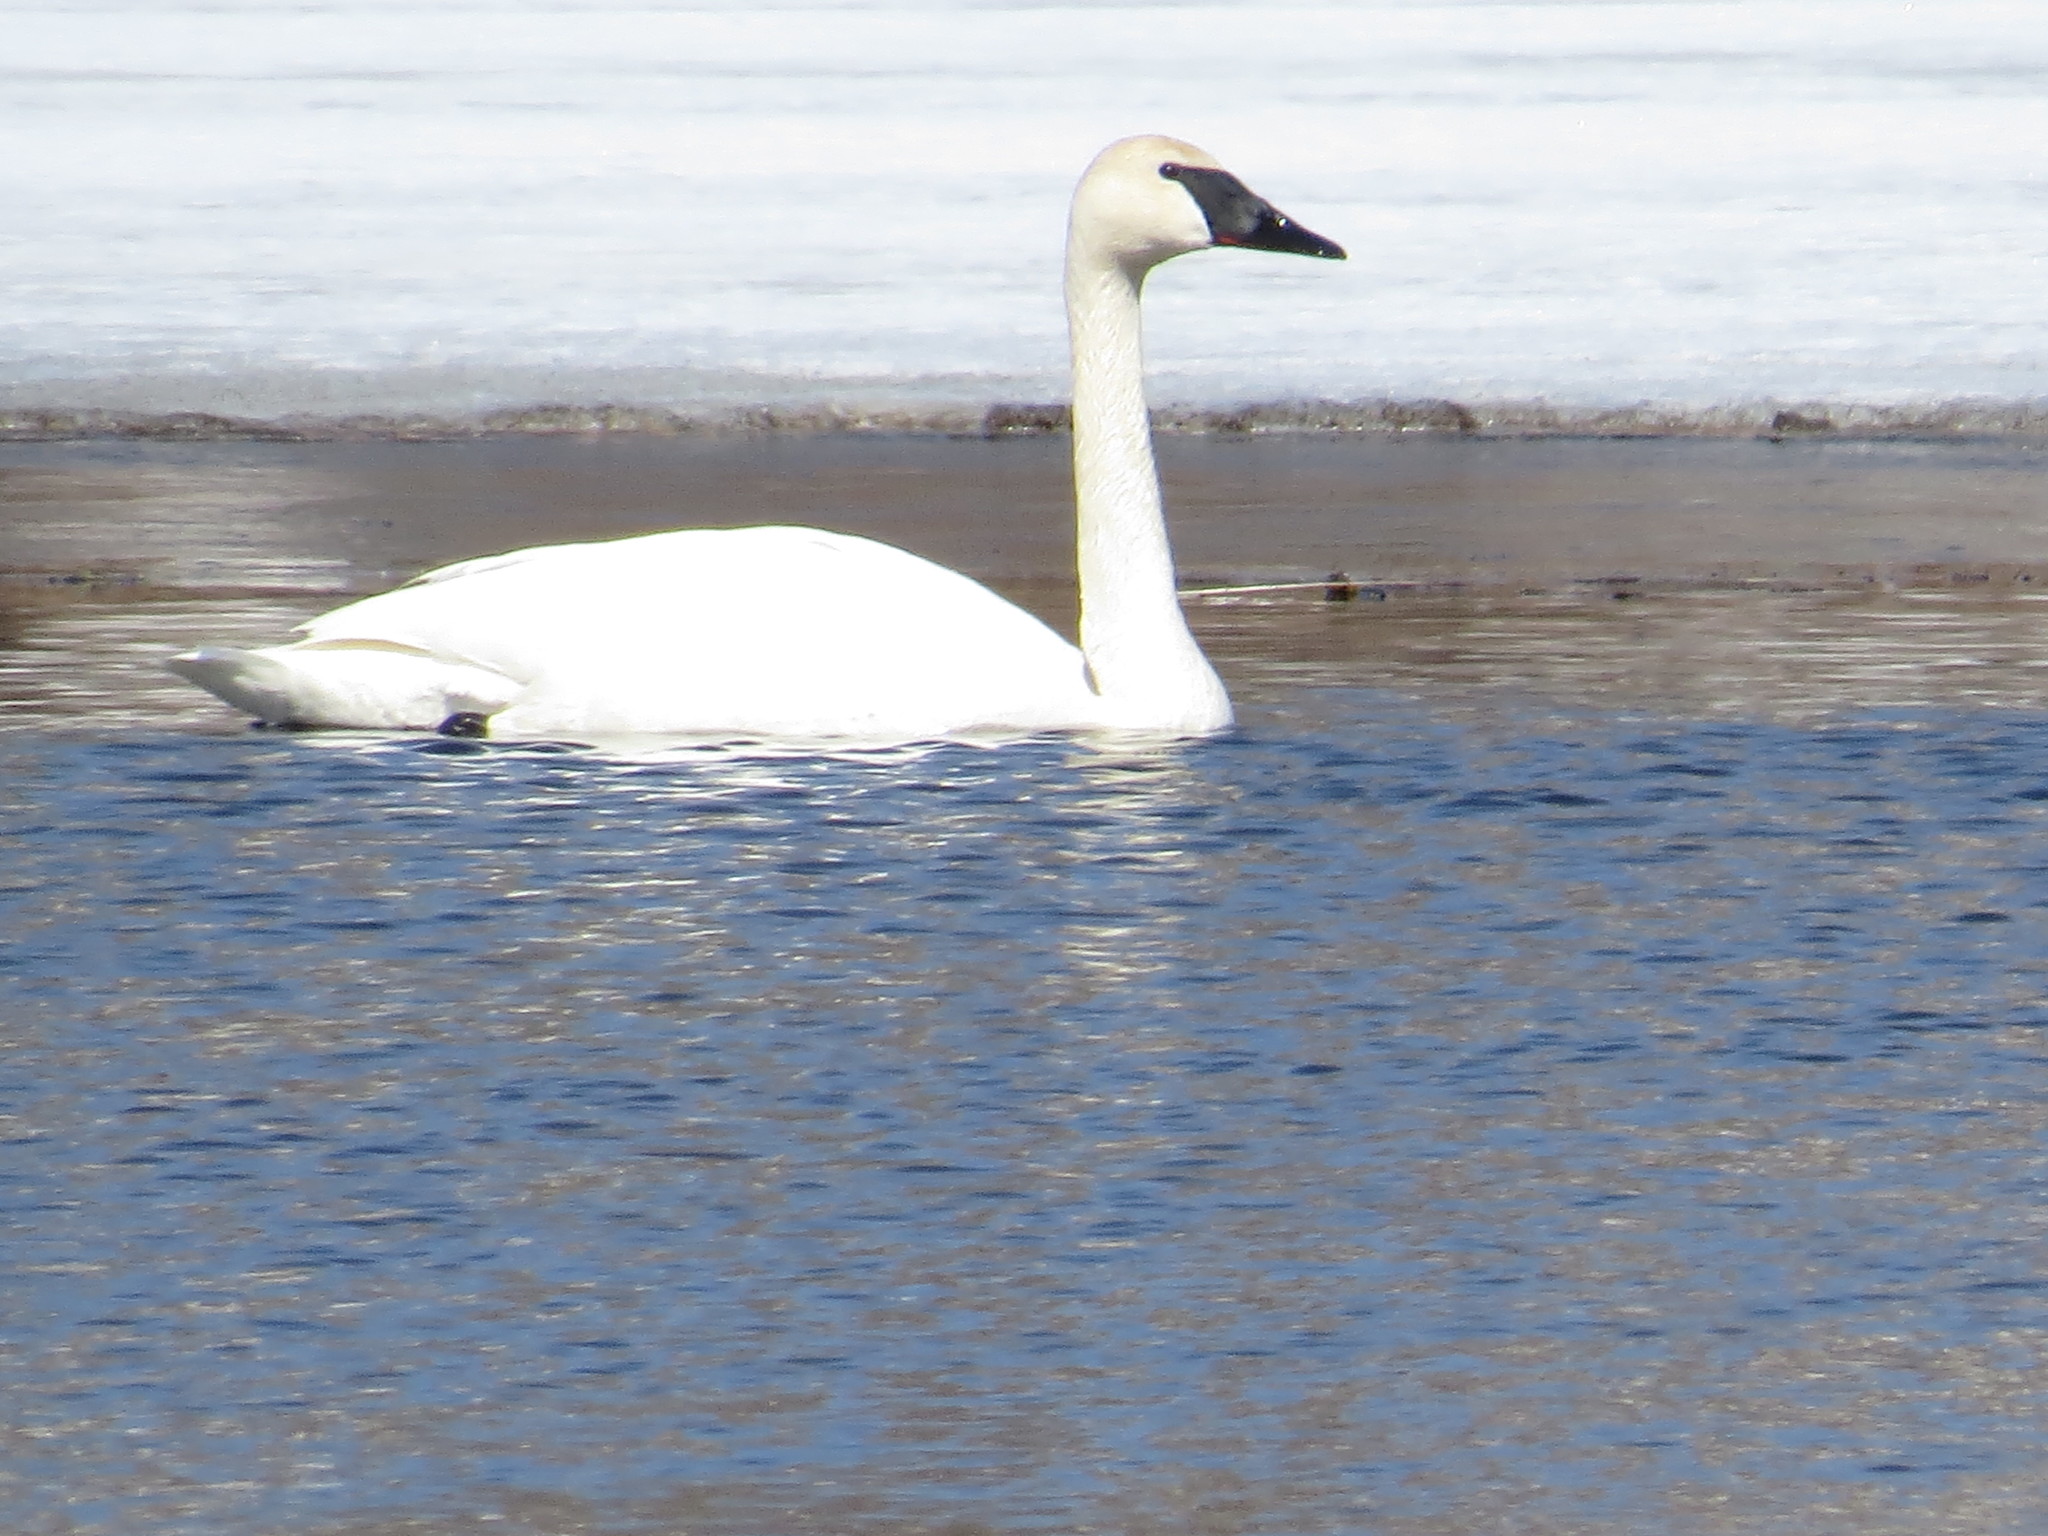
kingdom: Animalia
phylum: Chordata
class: Aves
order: Anseriformes
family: Anatidae
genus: Cygnus
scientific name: Cygnus buccinator
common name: Trumpeter swan
